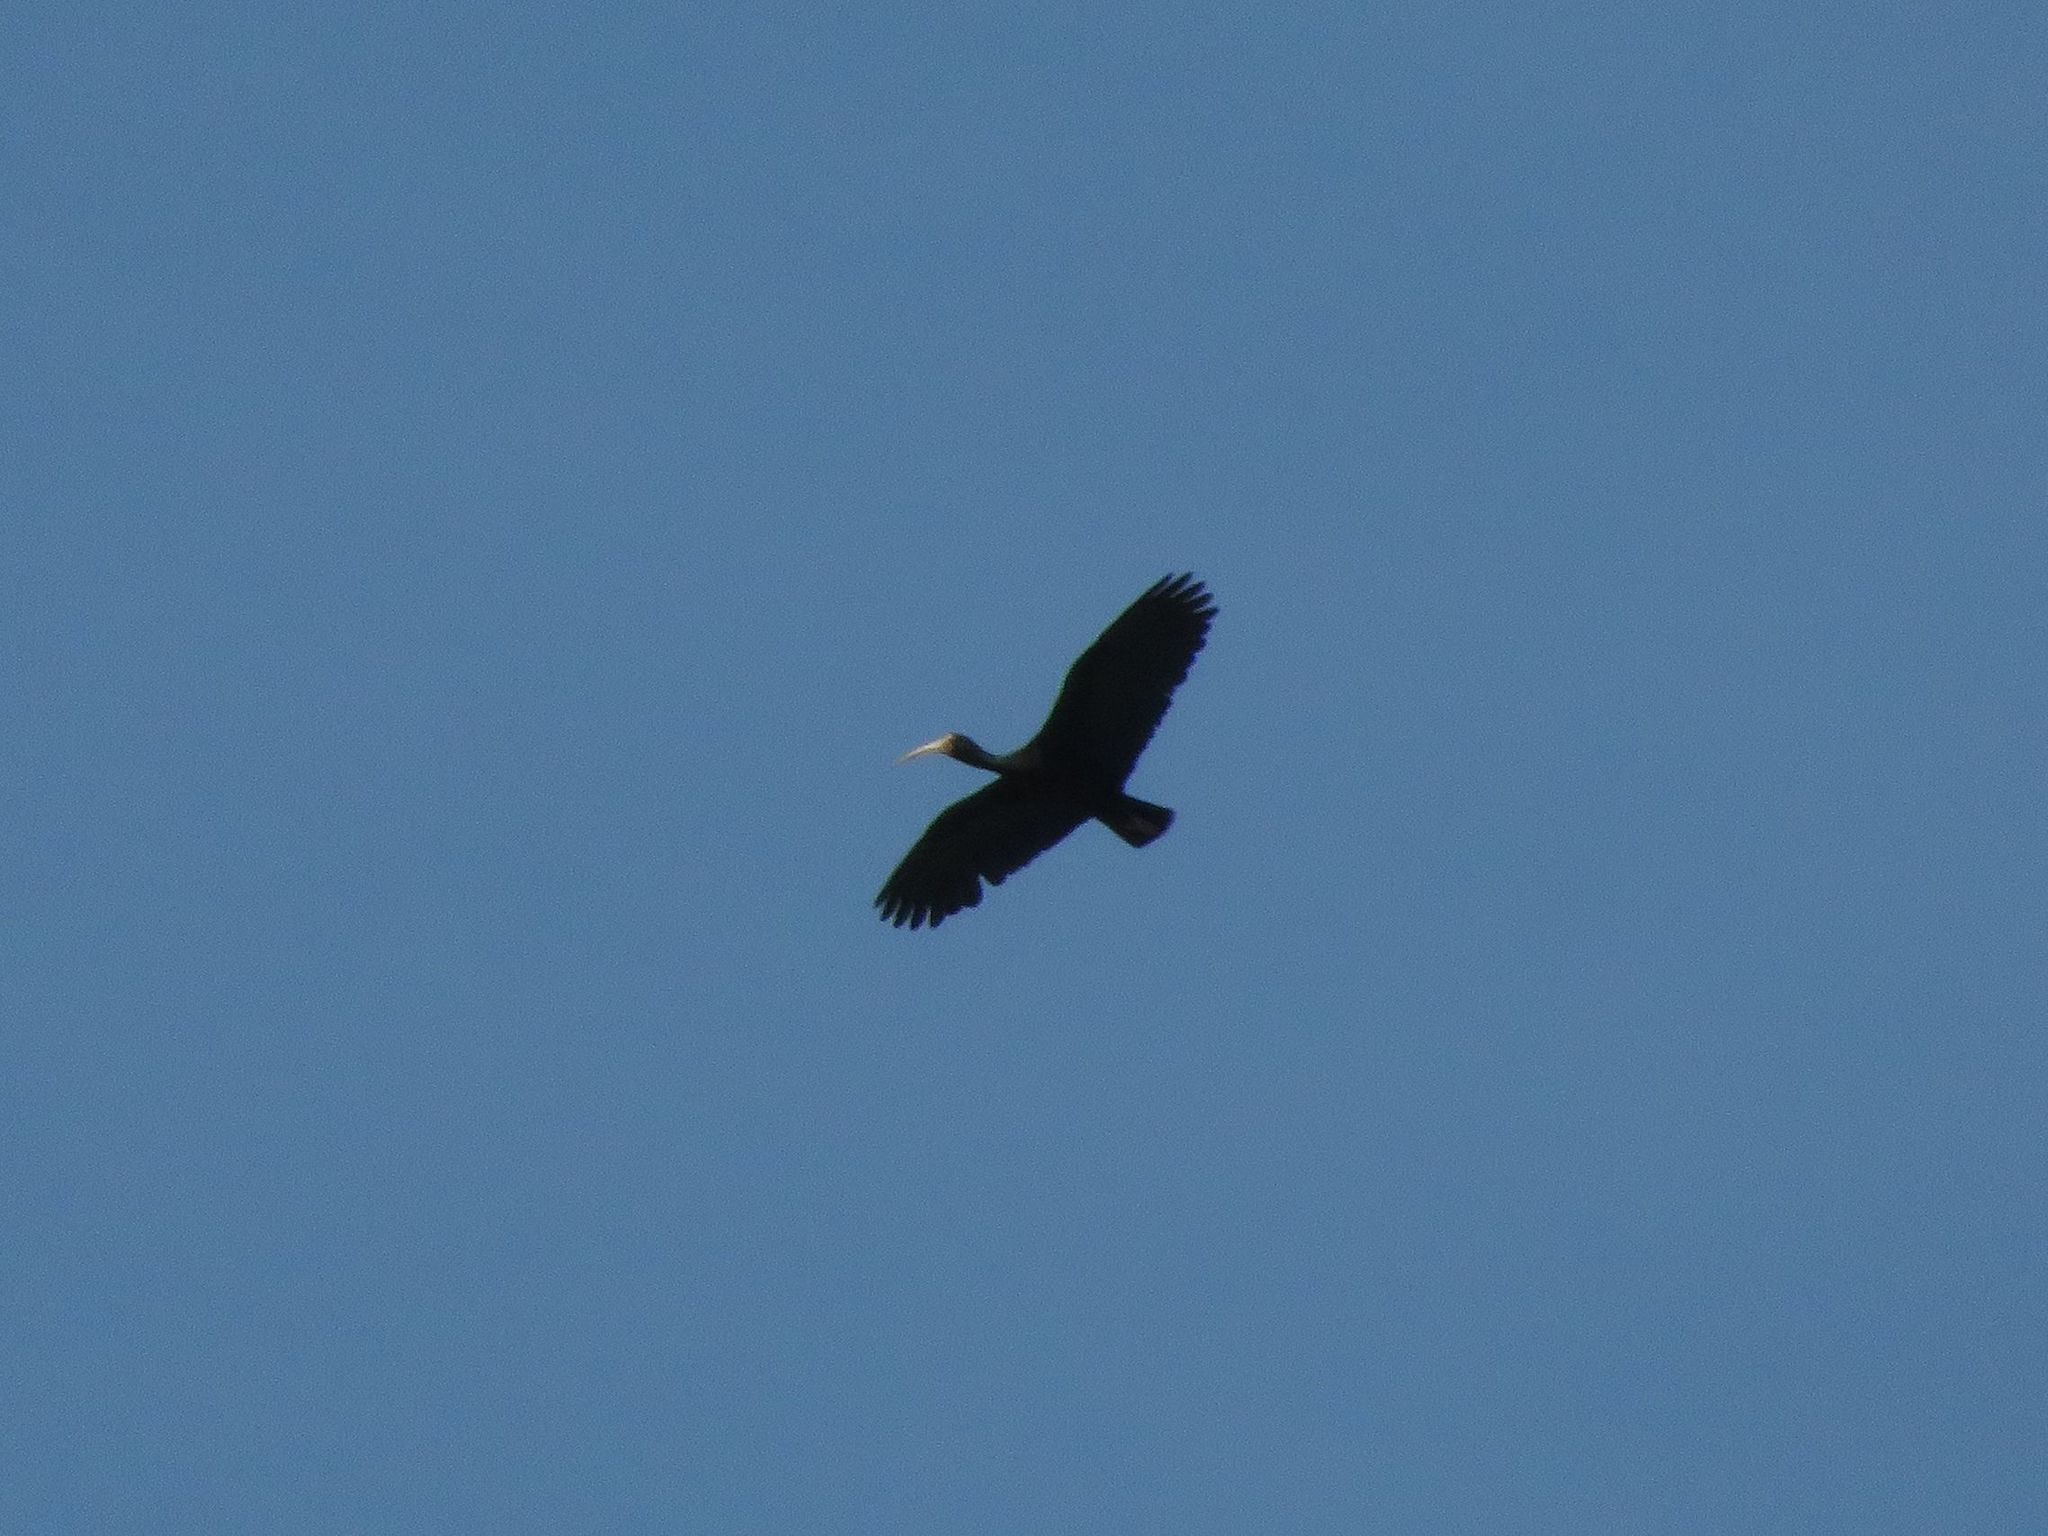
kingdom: Animalia
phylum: Chordata
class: Aves
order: Pelecaniformes
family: Threskiornithidae
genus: Phimosus
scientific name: Phimosus infuscatus
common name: Bare-faced ibis
